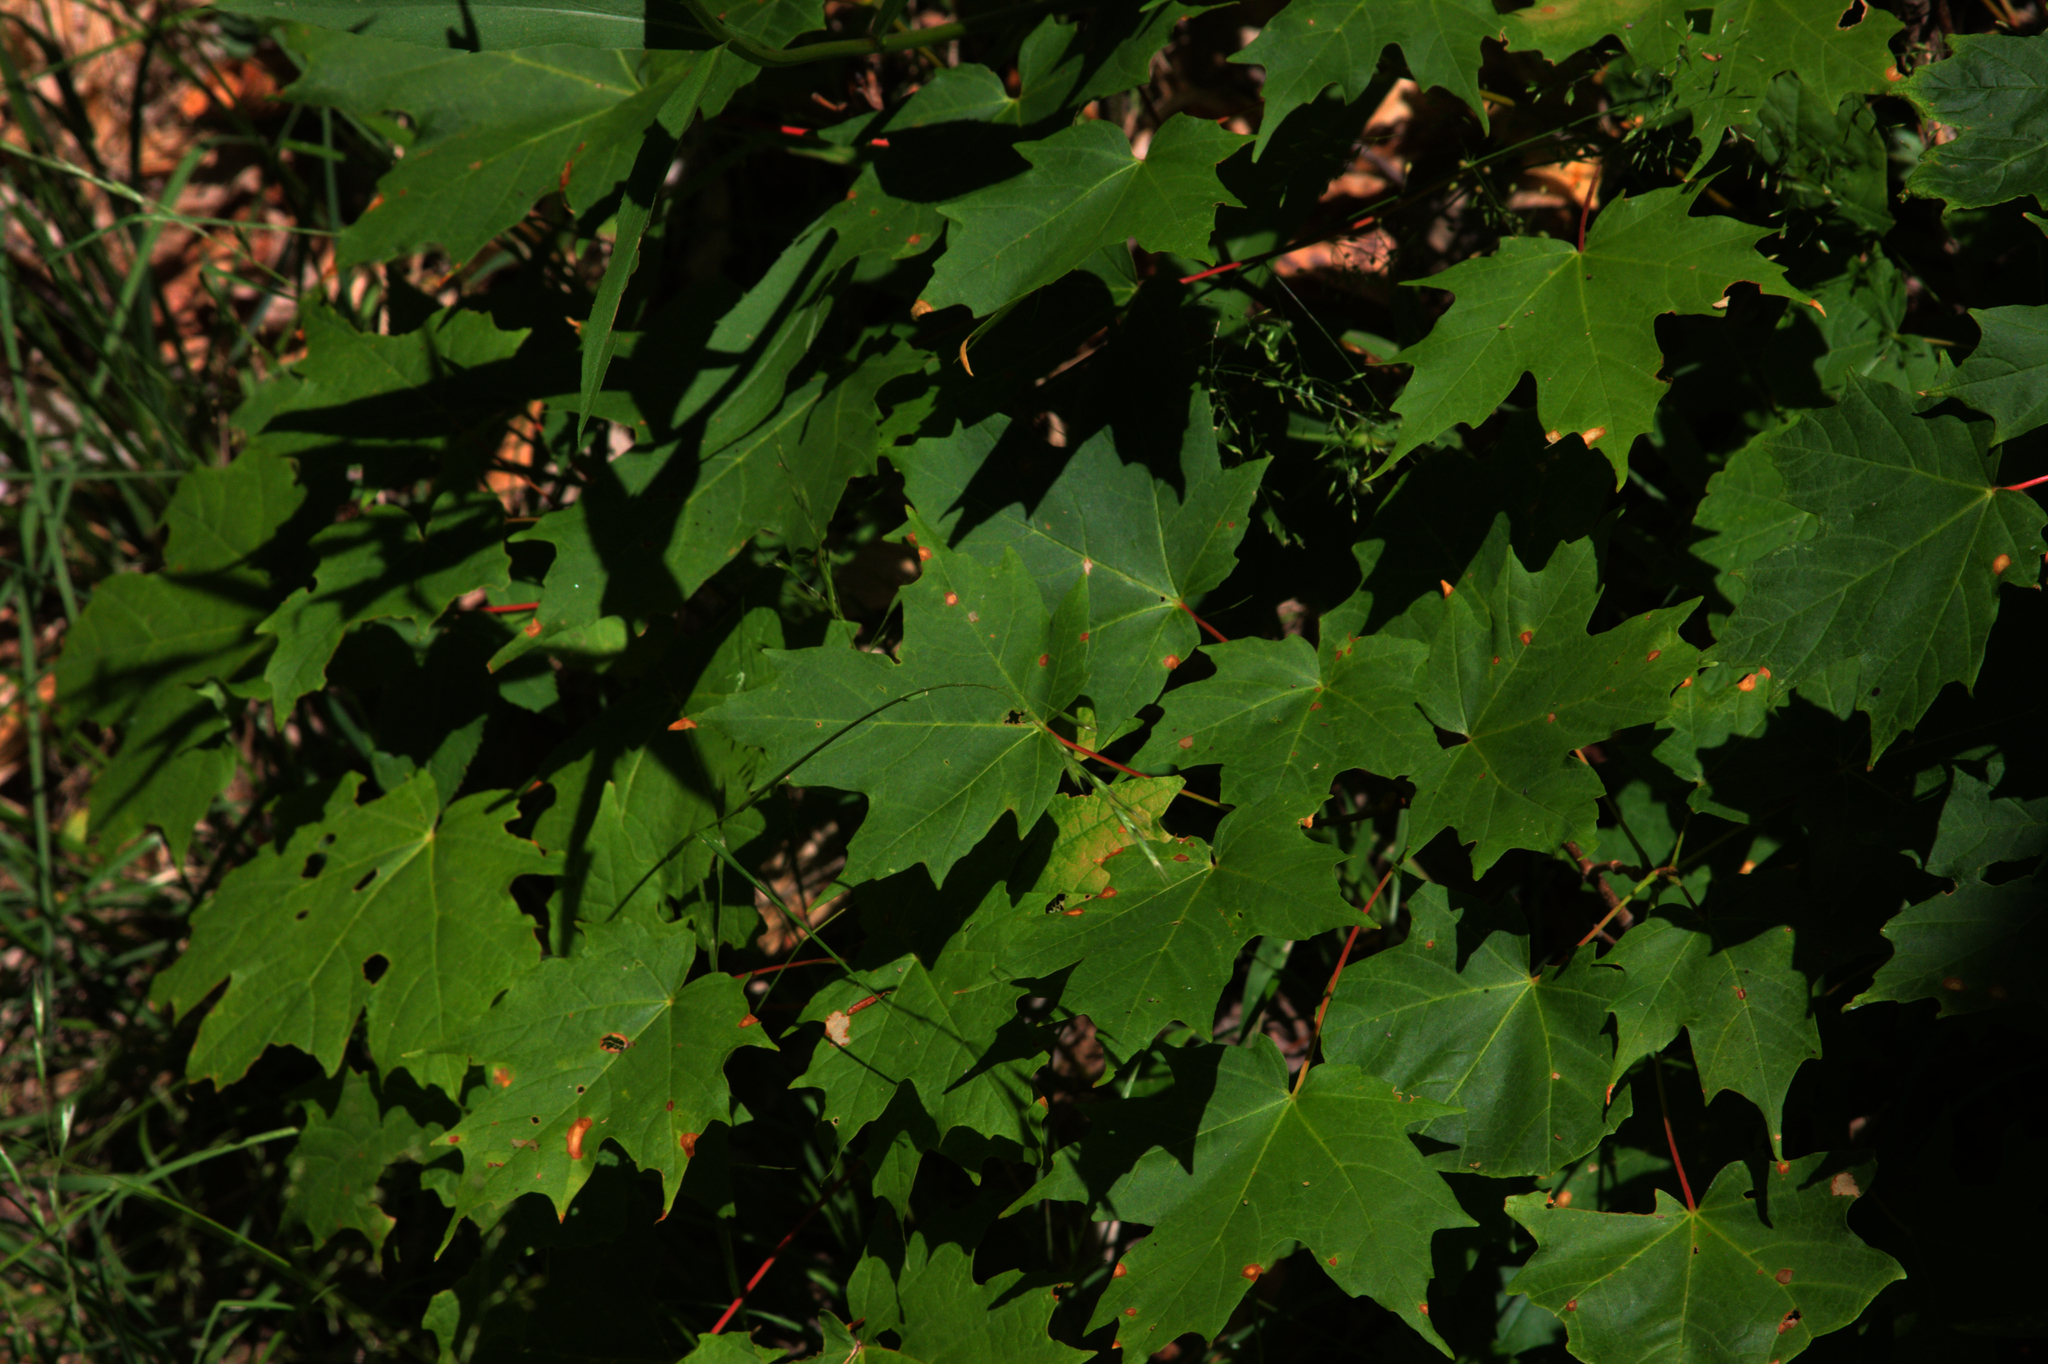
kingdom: Plantae
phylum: Tracheophyta
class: Magnoliopsida
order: Sapindales
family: Sapindaceae
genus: Acer
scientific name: Acer saccharum
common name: Sugar maple
